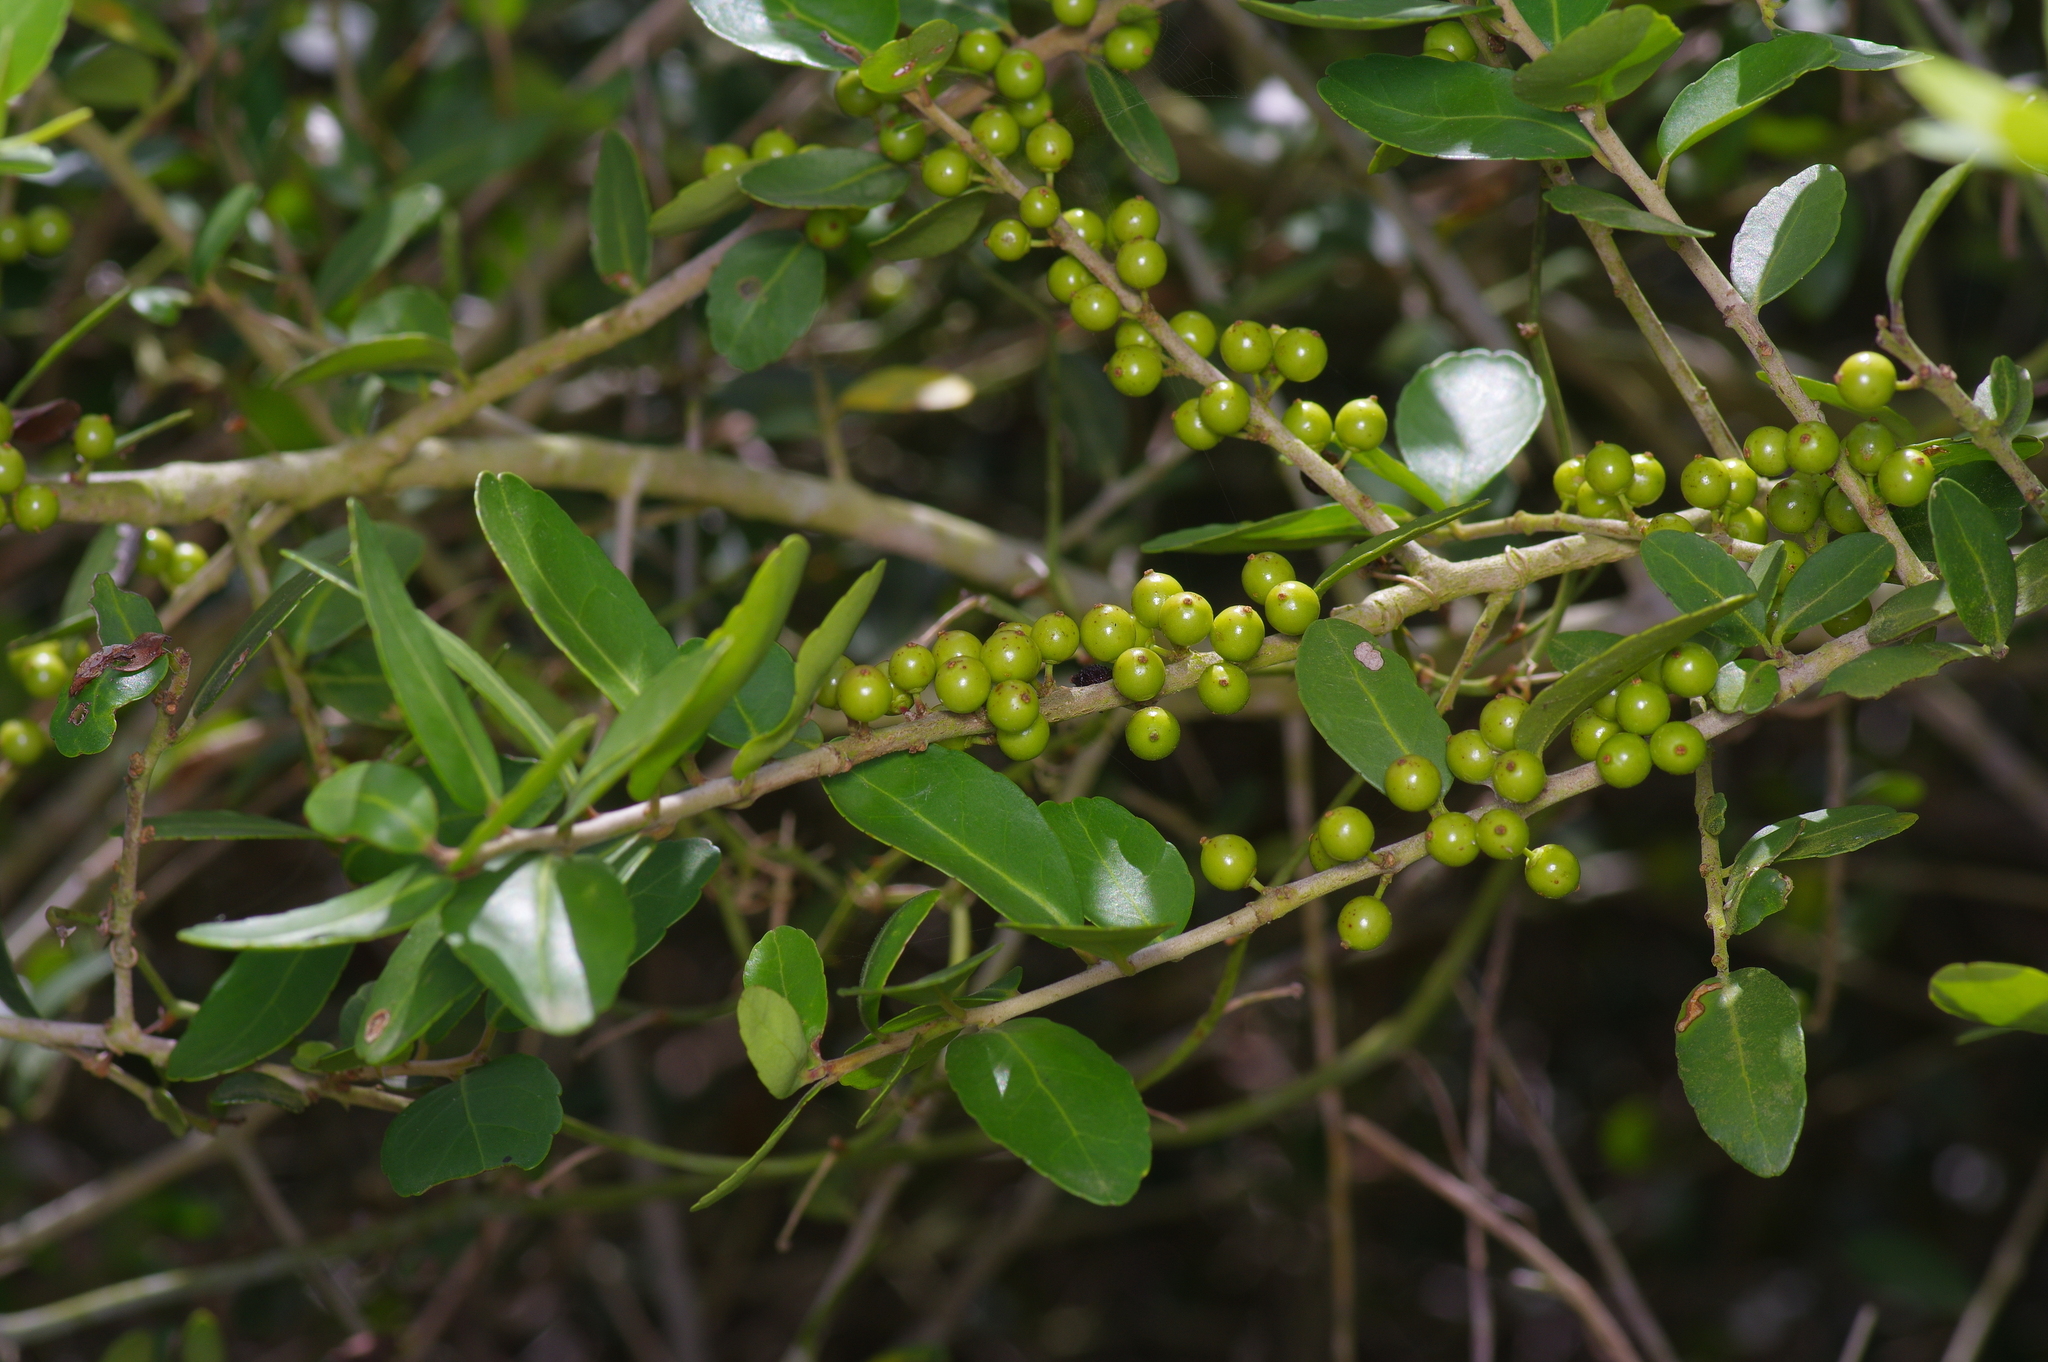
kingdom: Plantae
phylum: Tracheophyta
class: Magnoliopsida
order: Aquifoliales
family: Aquifoliaceae
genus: Ilex
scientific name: Ilex vomitoria
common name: Yaupon holly
